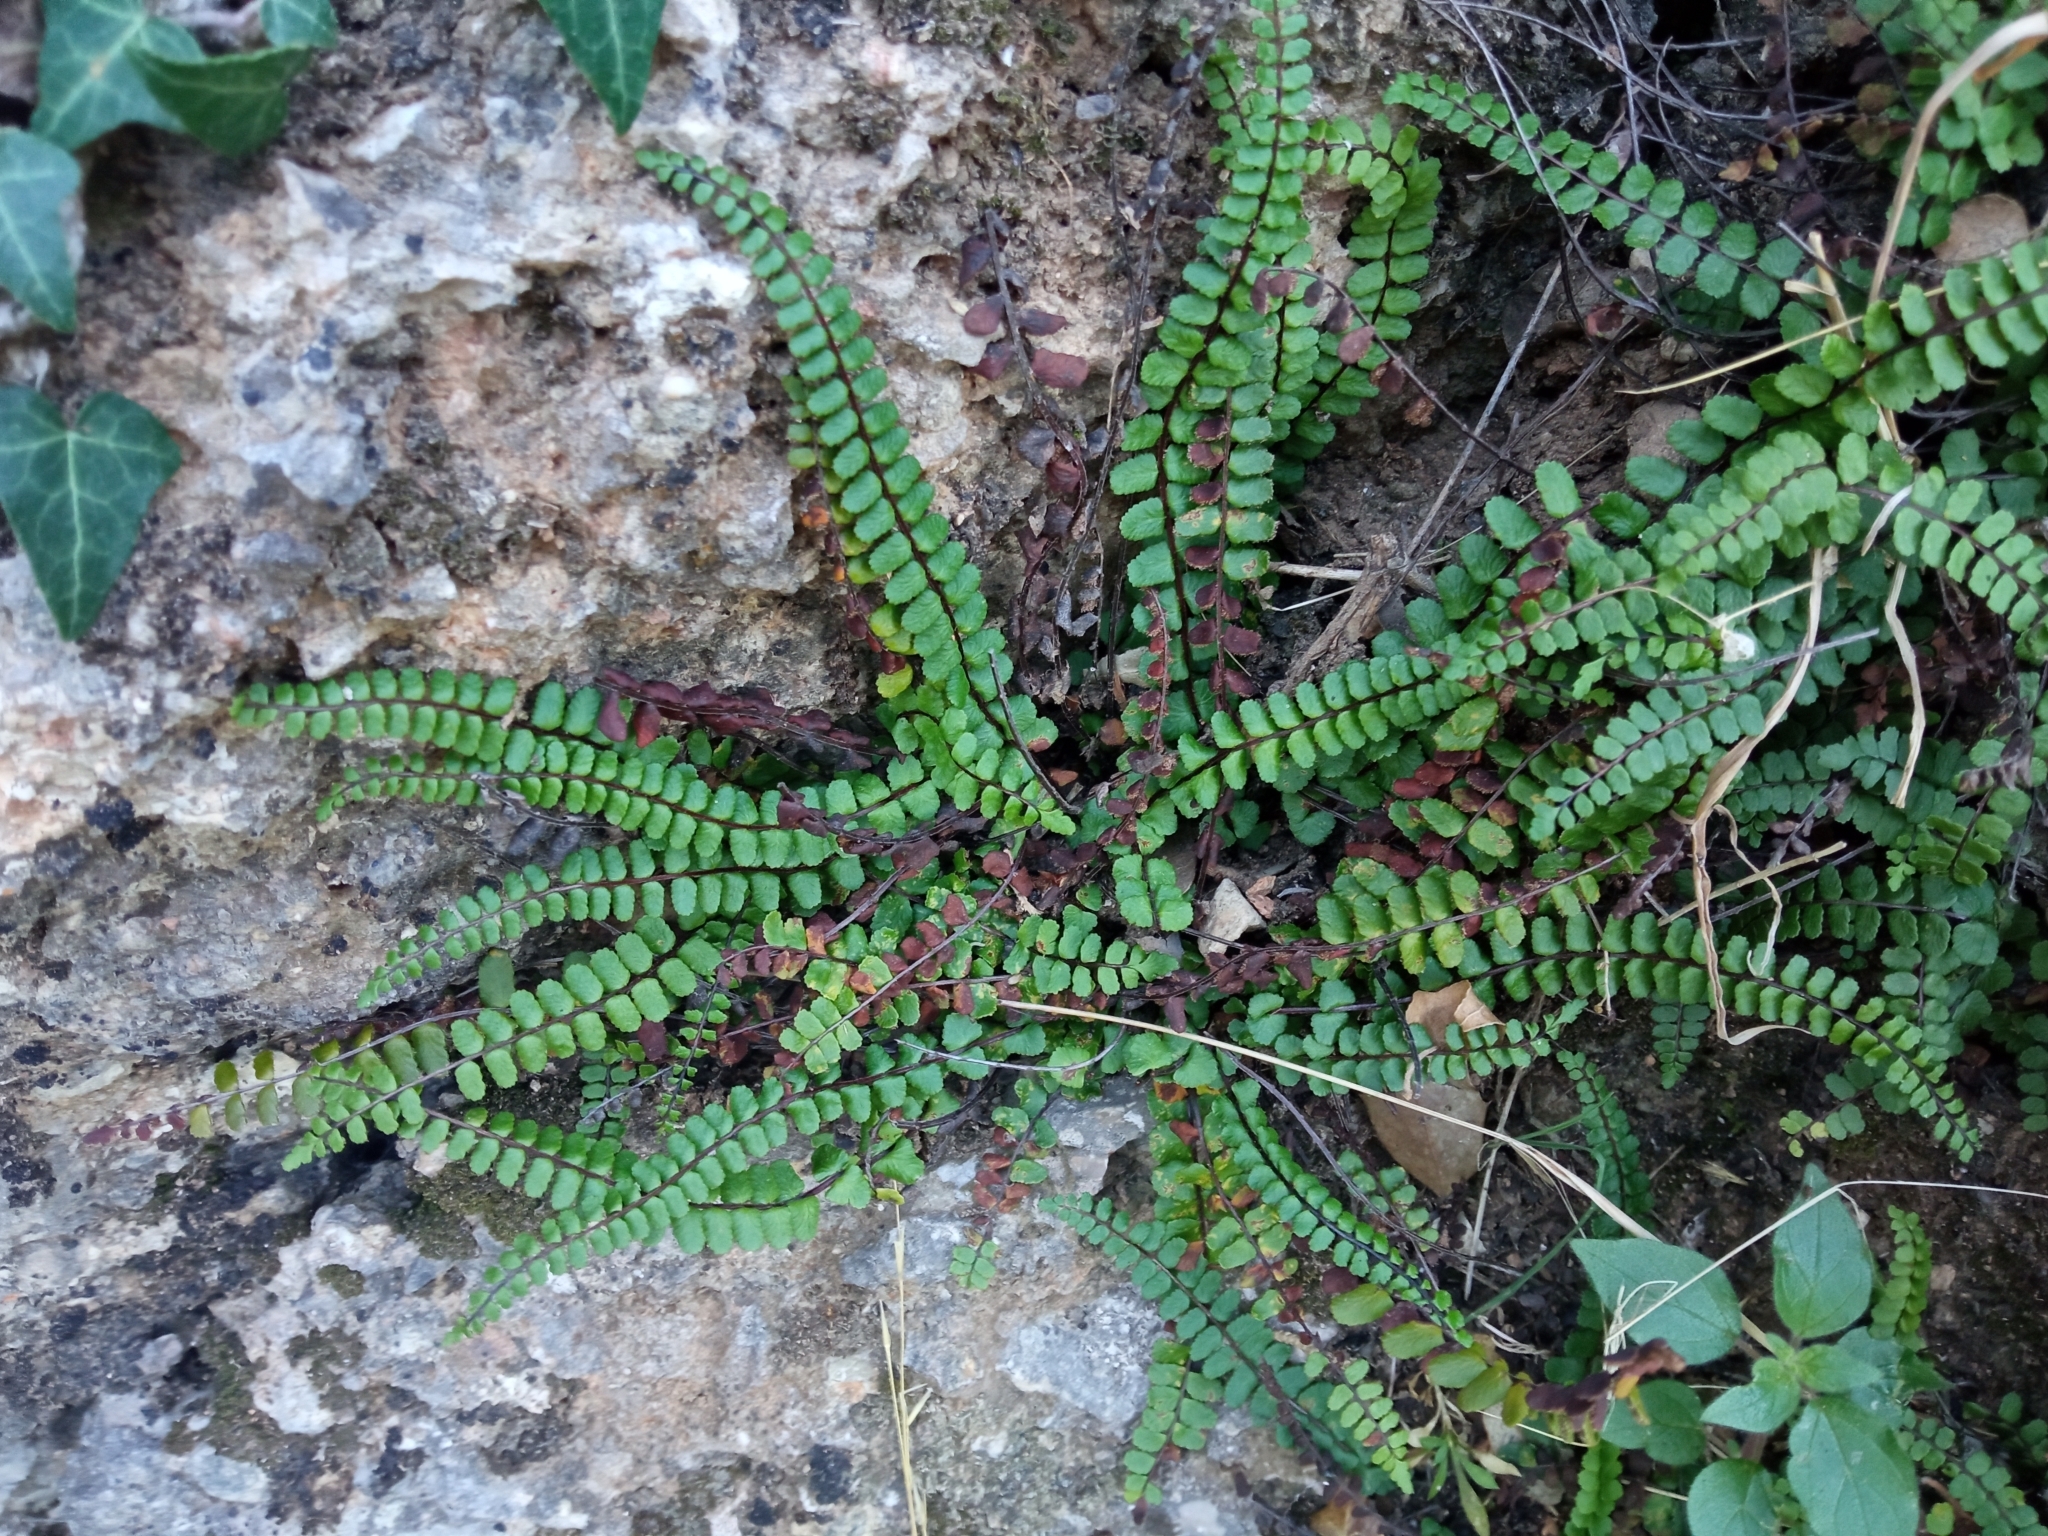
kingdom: Plantae
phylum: Tracheophyta
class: Polypodiopsida
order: Polypodiales
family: Aspleniaceae
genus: Asplenium
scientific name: Asplenium trichomanes
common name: Maidenhair spleenwort
